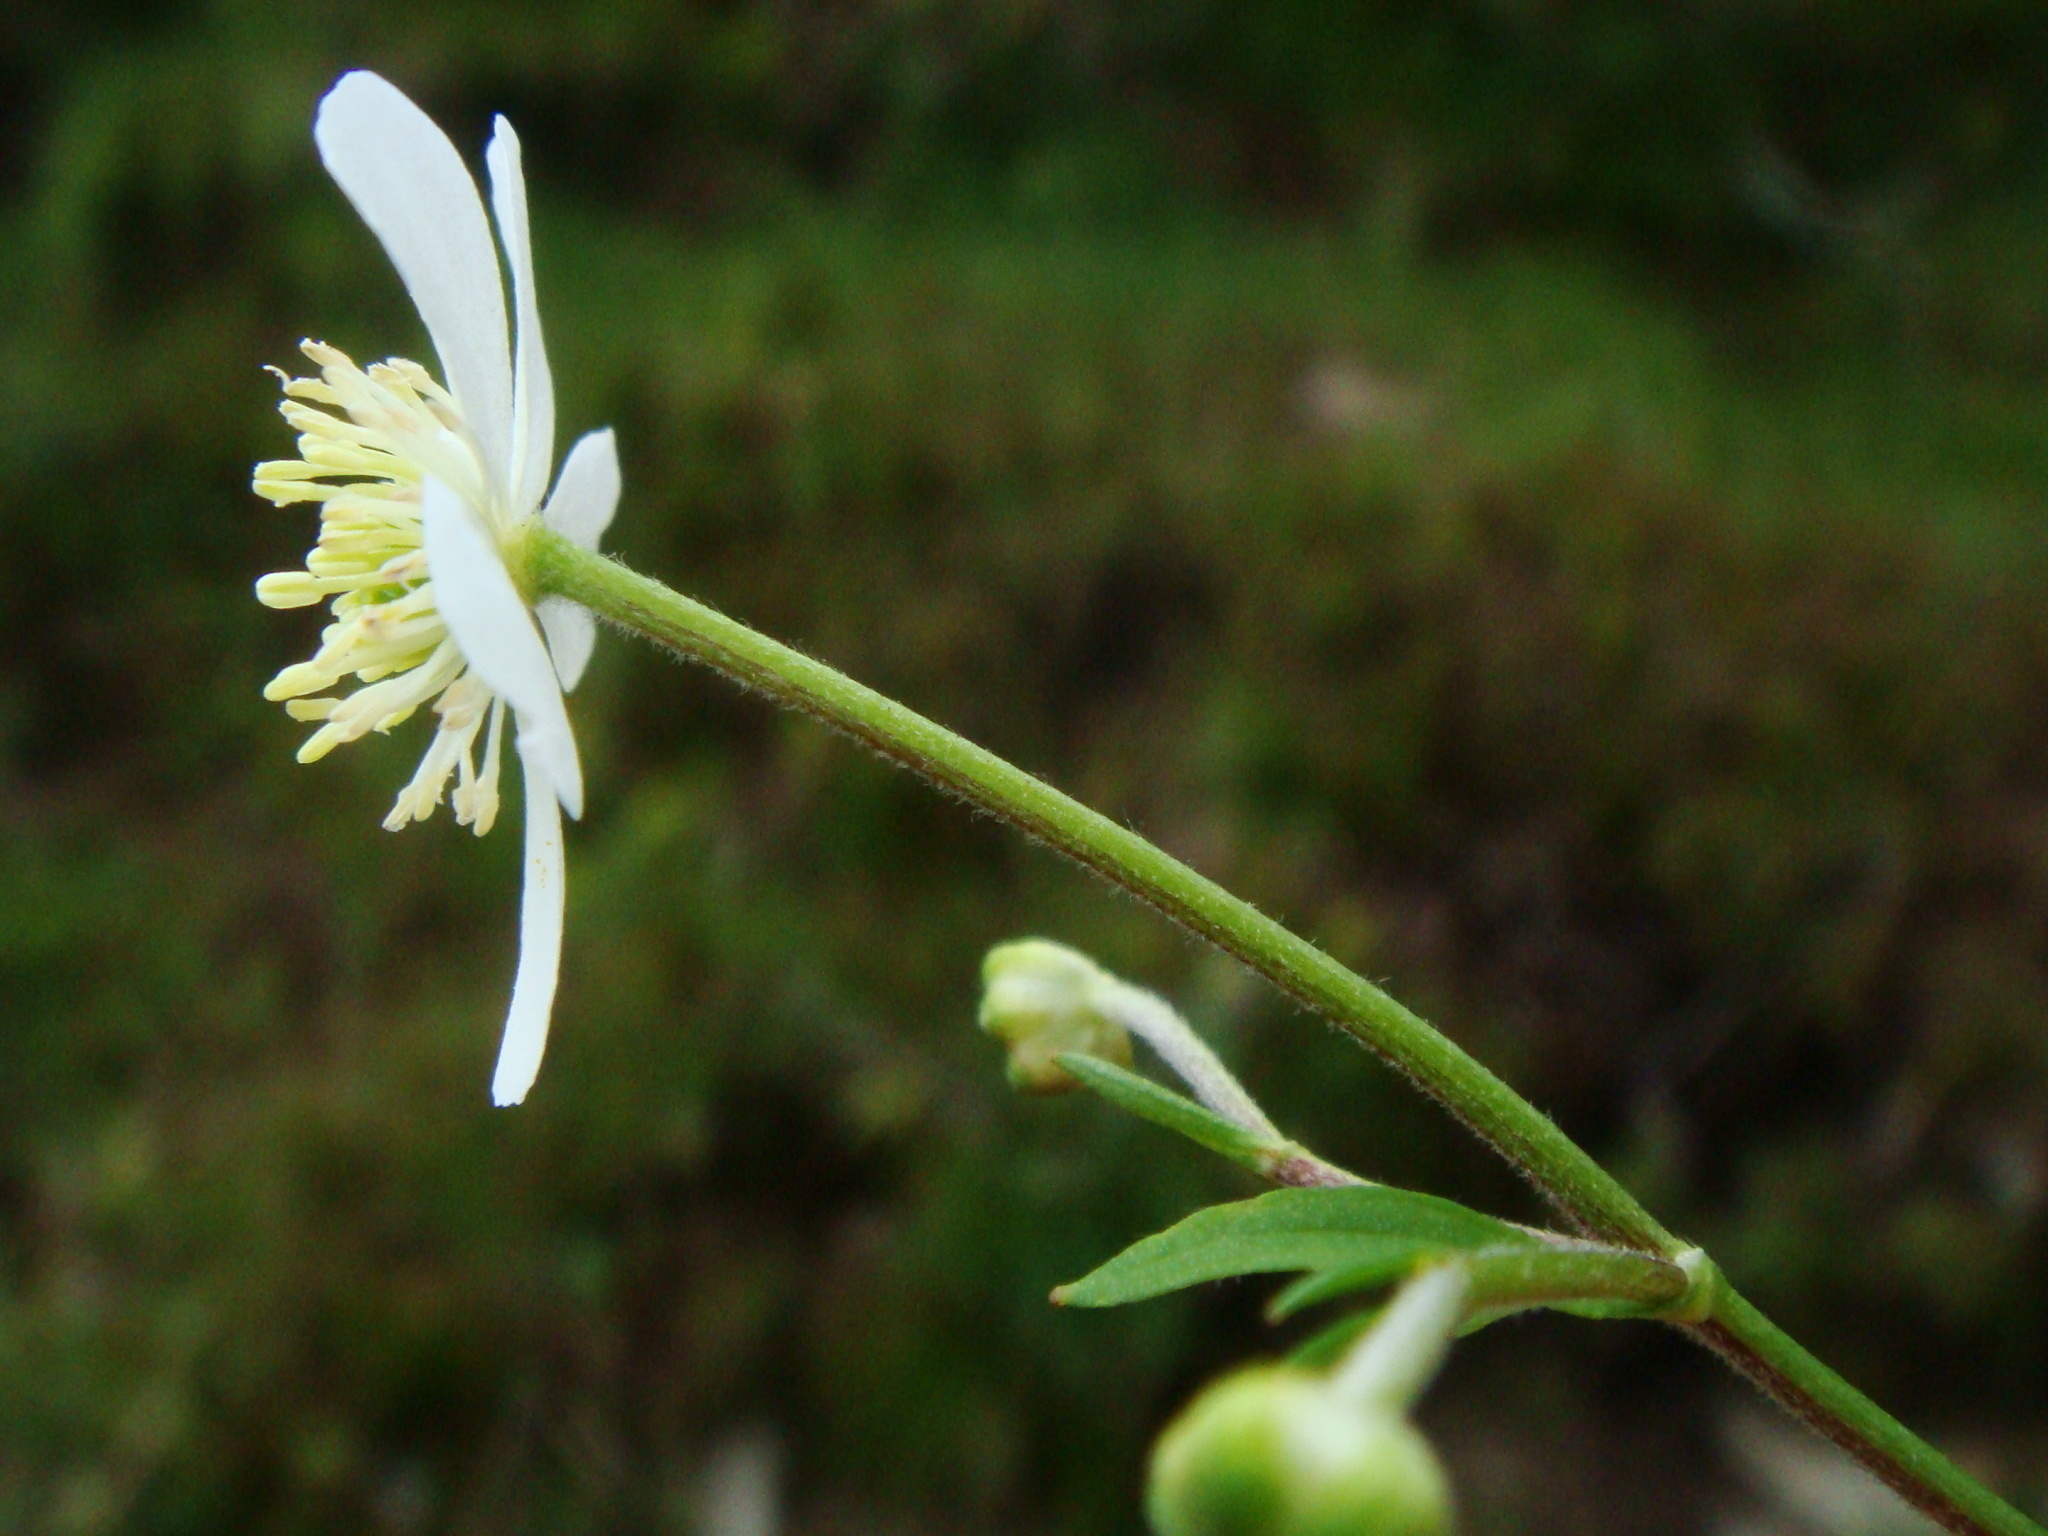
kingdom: Plantae
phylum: Tracheophyta
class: Magnoliopsida
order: Ranunculales
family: Ranunculaceae
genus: Ranunculus
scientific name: Ranunculus aconitifolius
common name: Aconite-leaved buttercup
